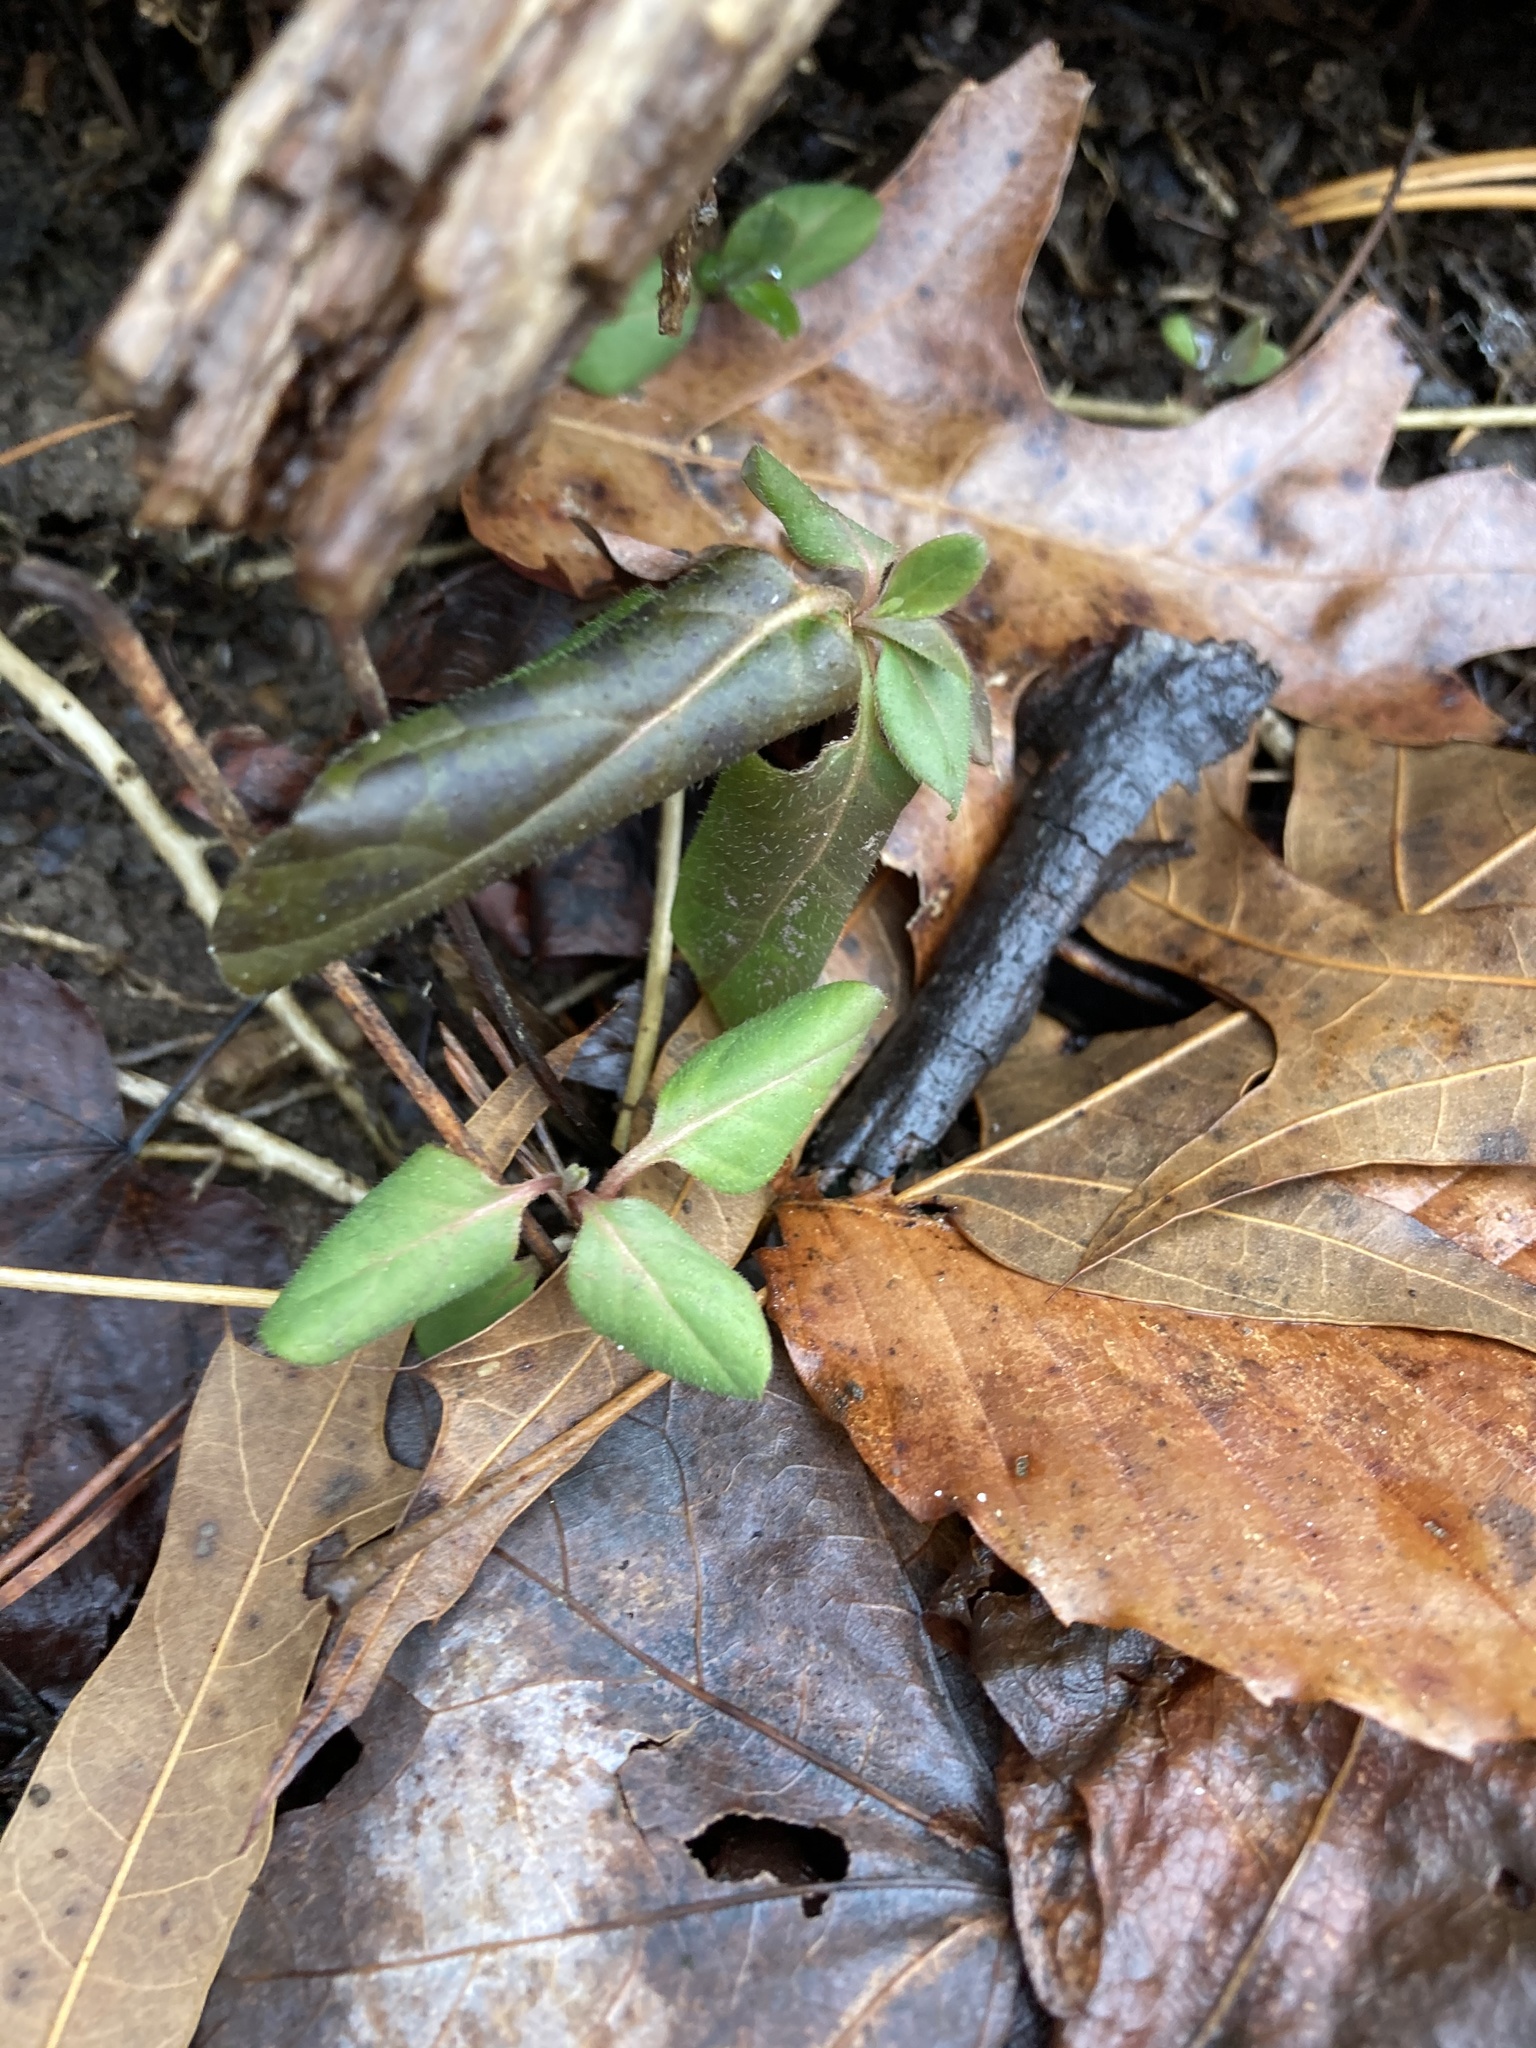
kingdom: Plantae
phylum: Tracheophyta
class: Magnoliopsida
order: Dipsacales
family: Caprifoliaceae
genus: Lonicera
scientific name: Lonicera japonica
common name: Japanese honeysuckle
